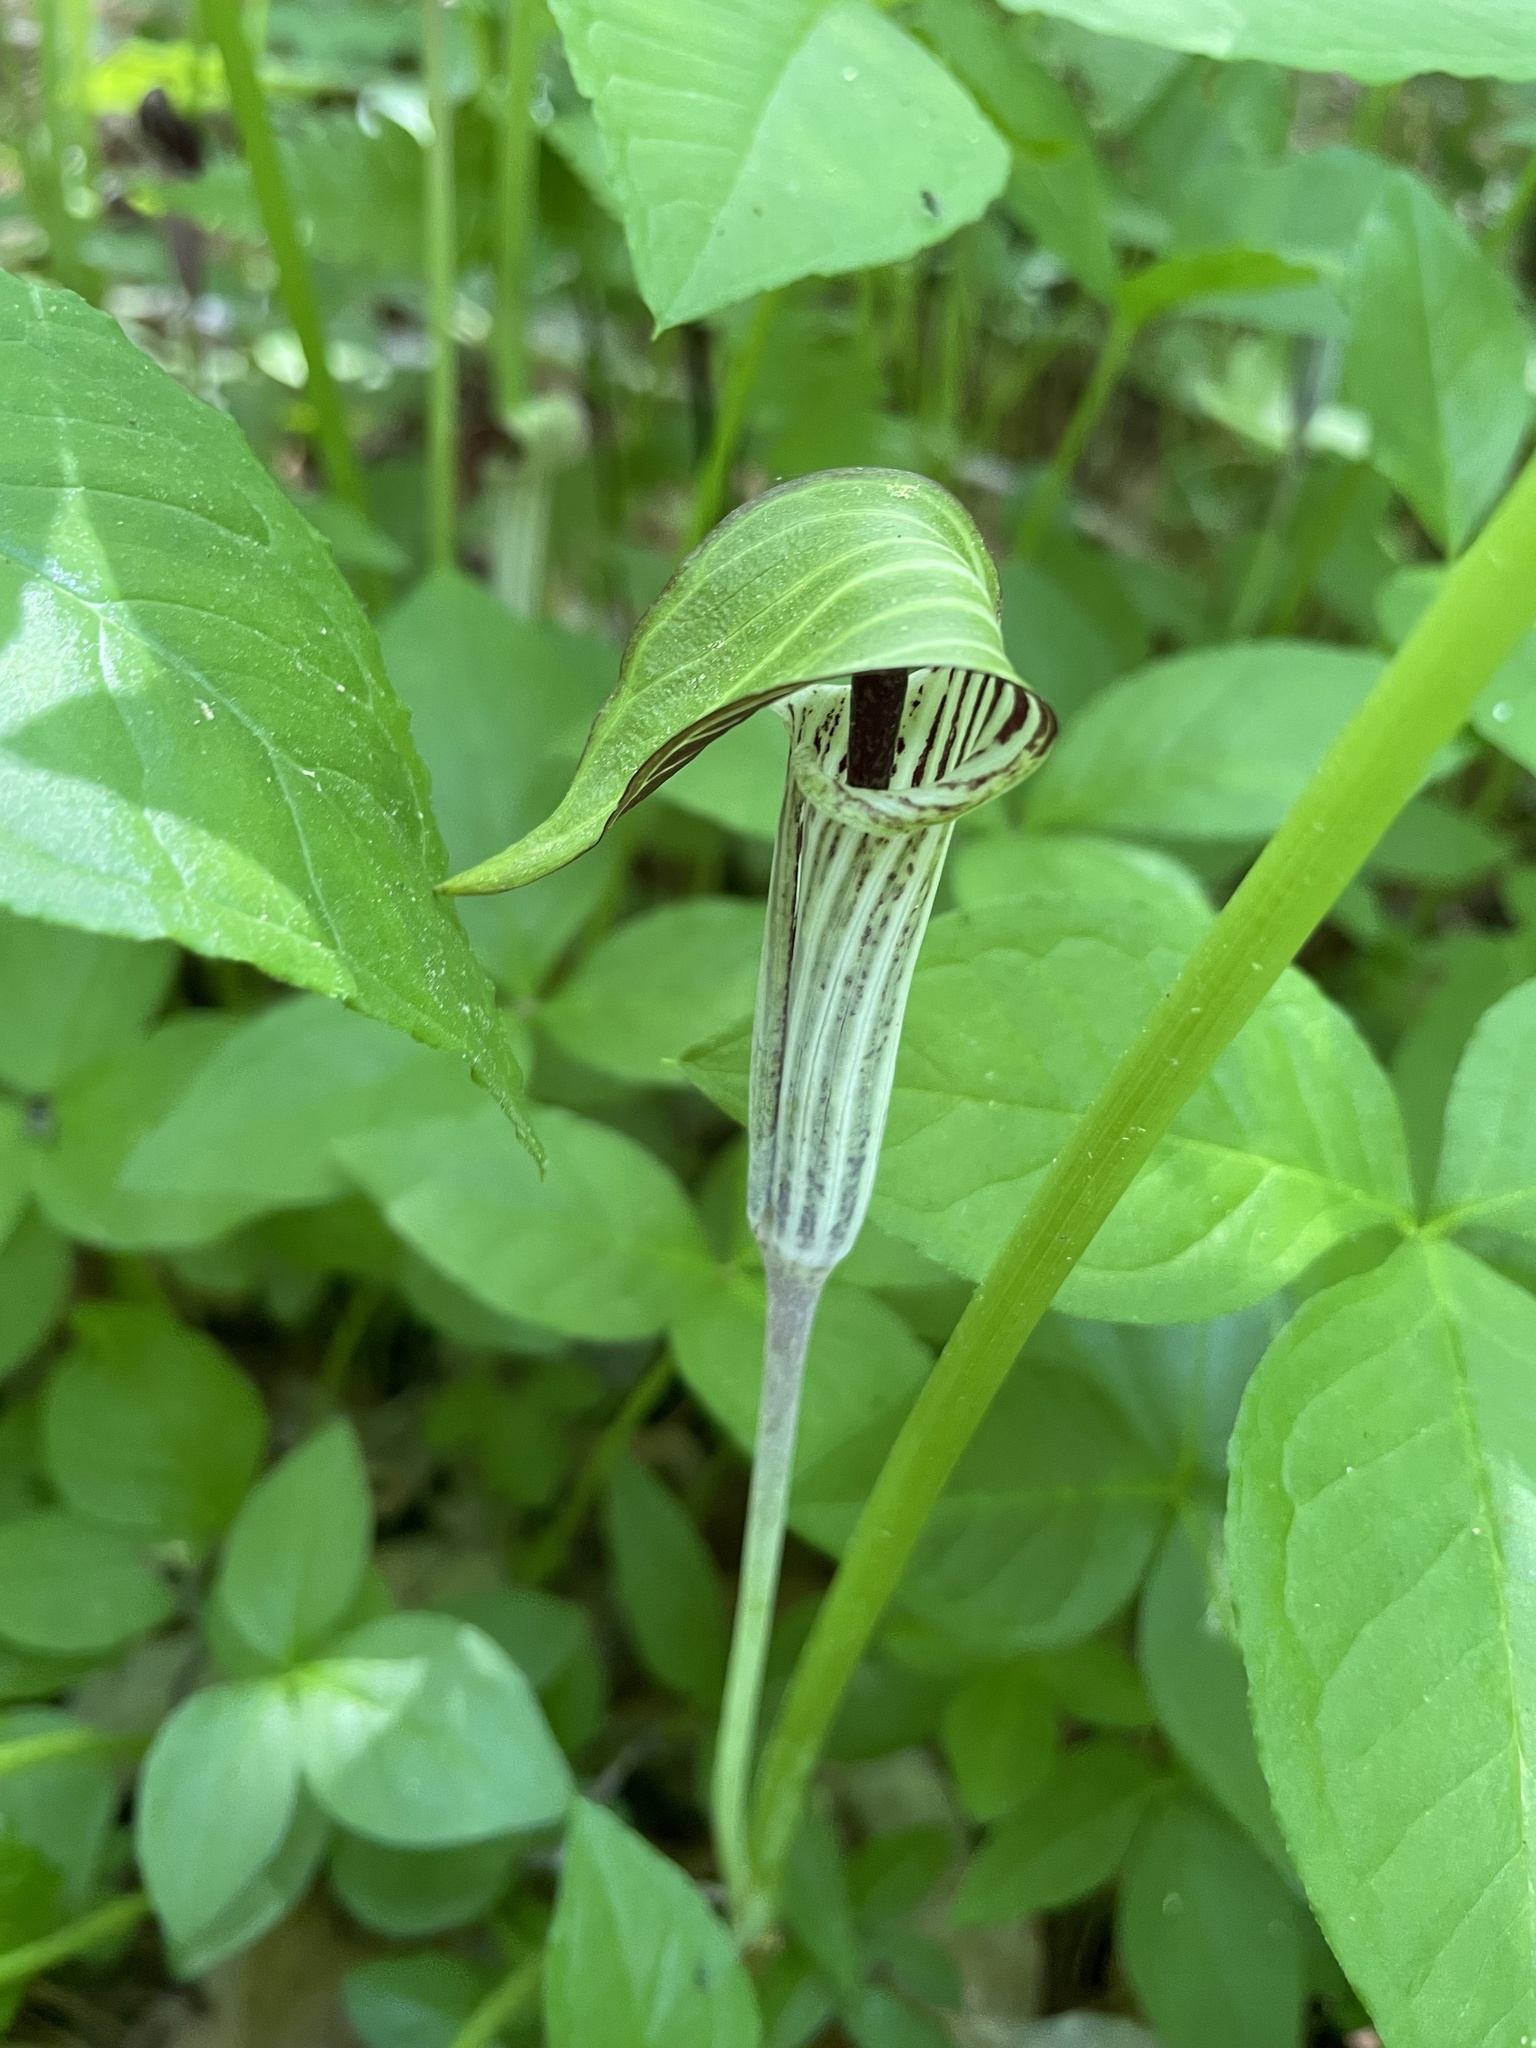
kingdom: Plantae
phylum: Tracheophyta
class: Liliopsida
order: Alismatales
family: Araceae
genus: Arisaema
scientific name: Arisaema triphyllum
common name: Jack-in-the-pulpit
